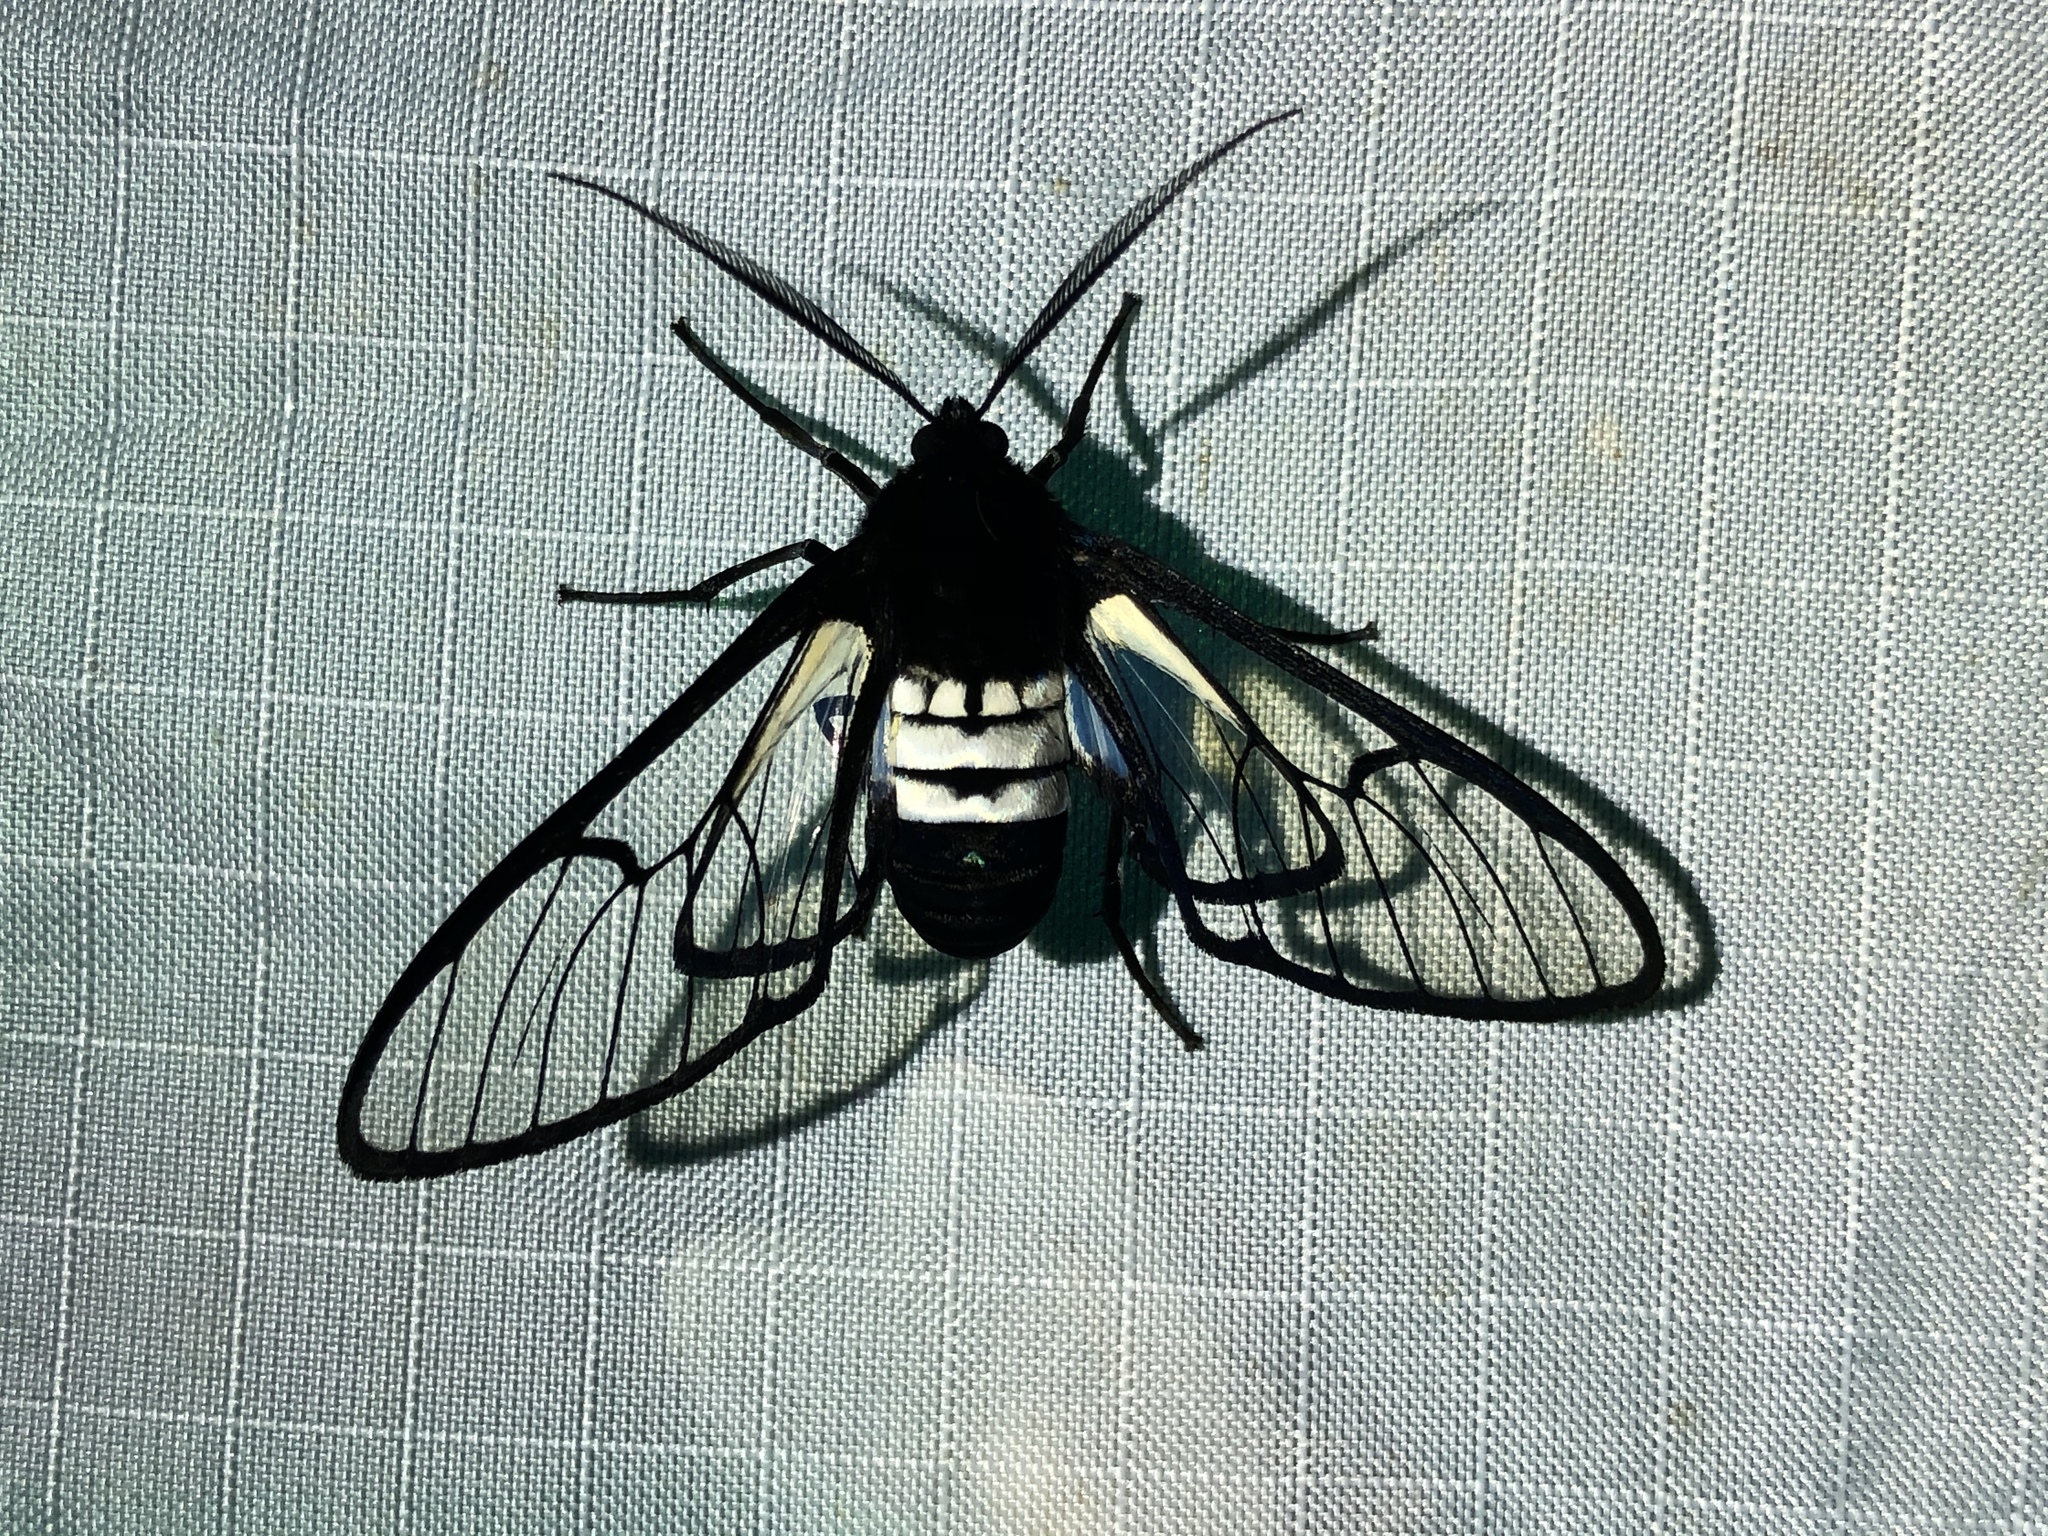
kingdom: Animalia
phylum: Arthropoda
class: Insecta
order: Lepidoptera
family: Erebidae
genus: Homoeocera
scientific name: Homoeocera trizona
